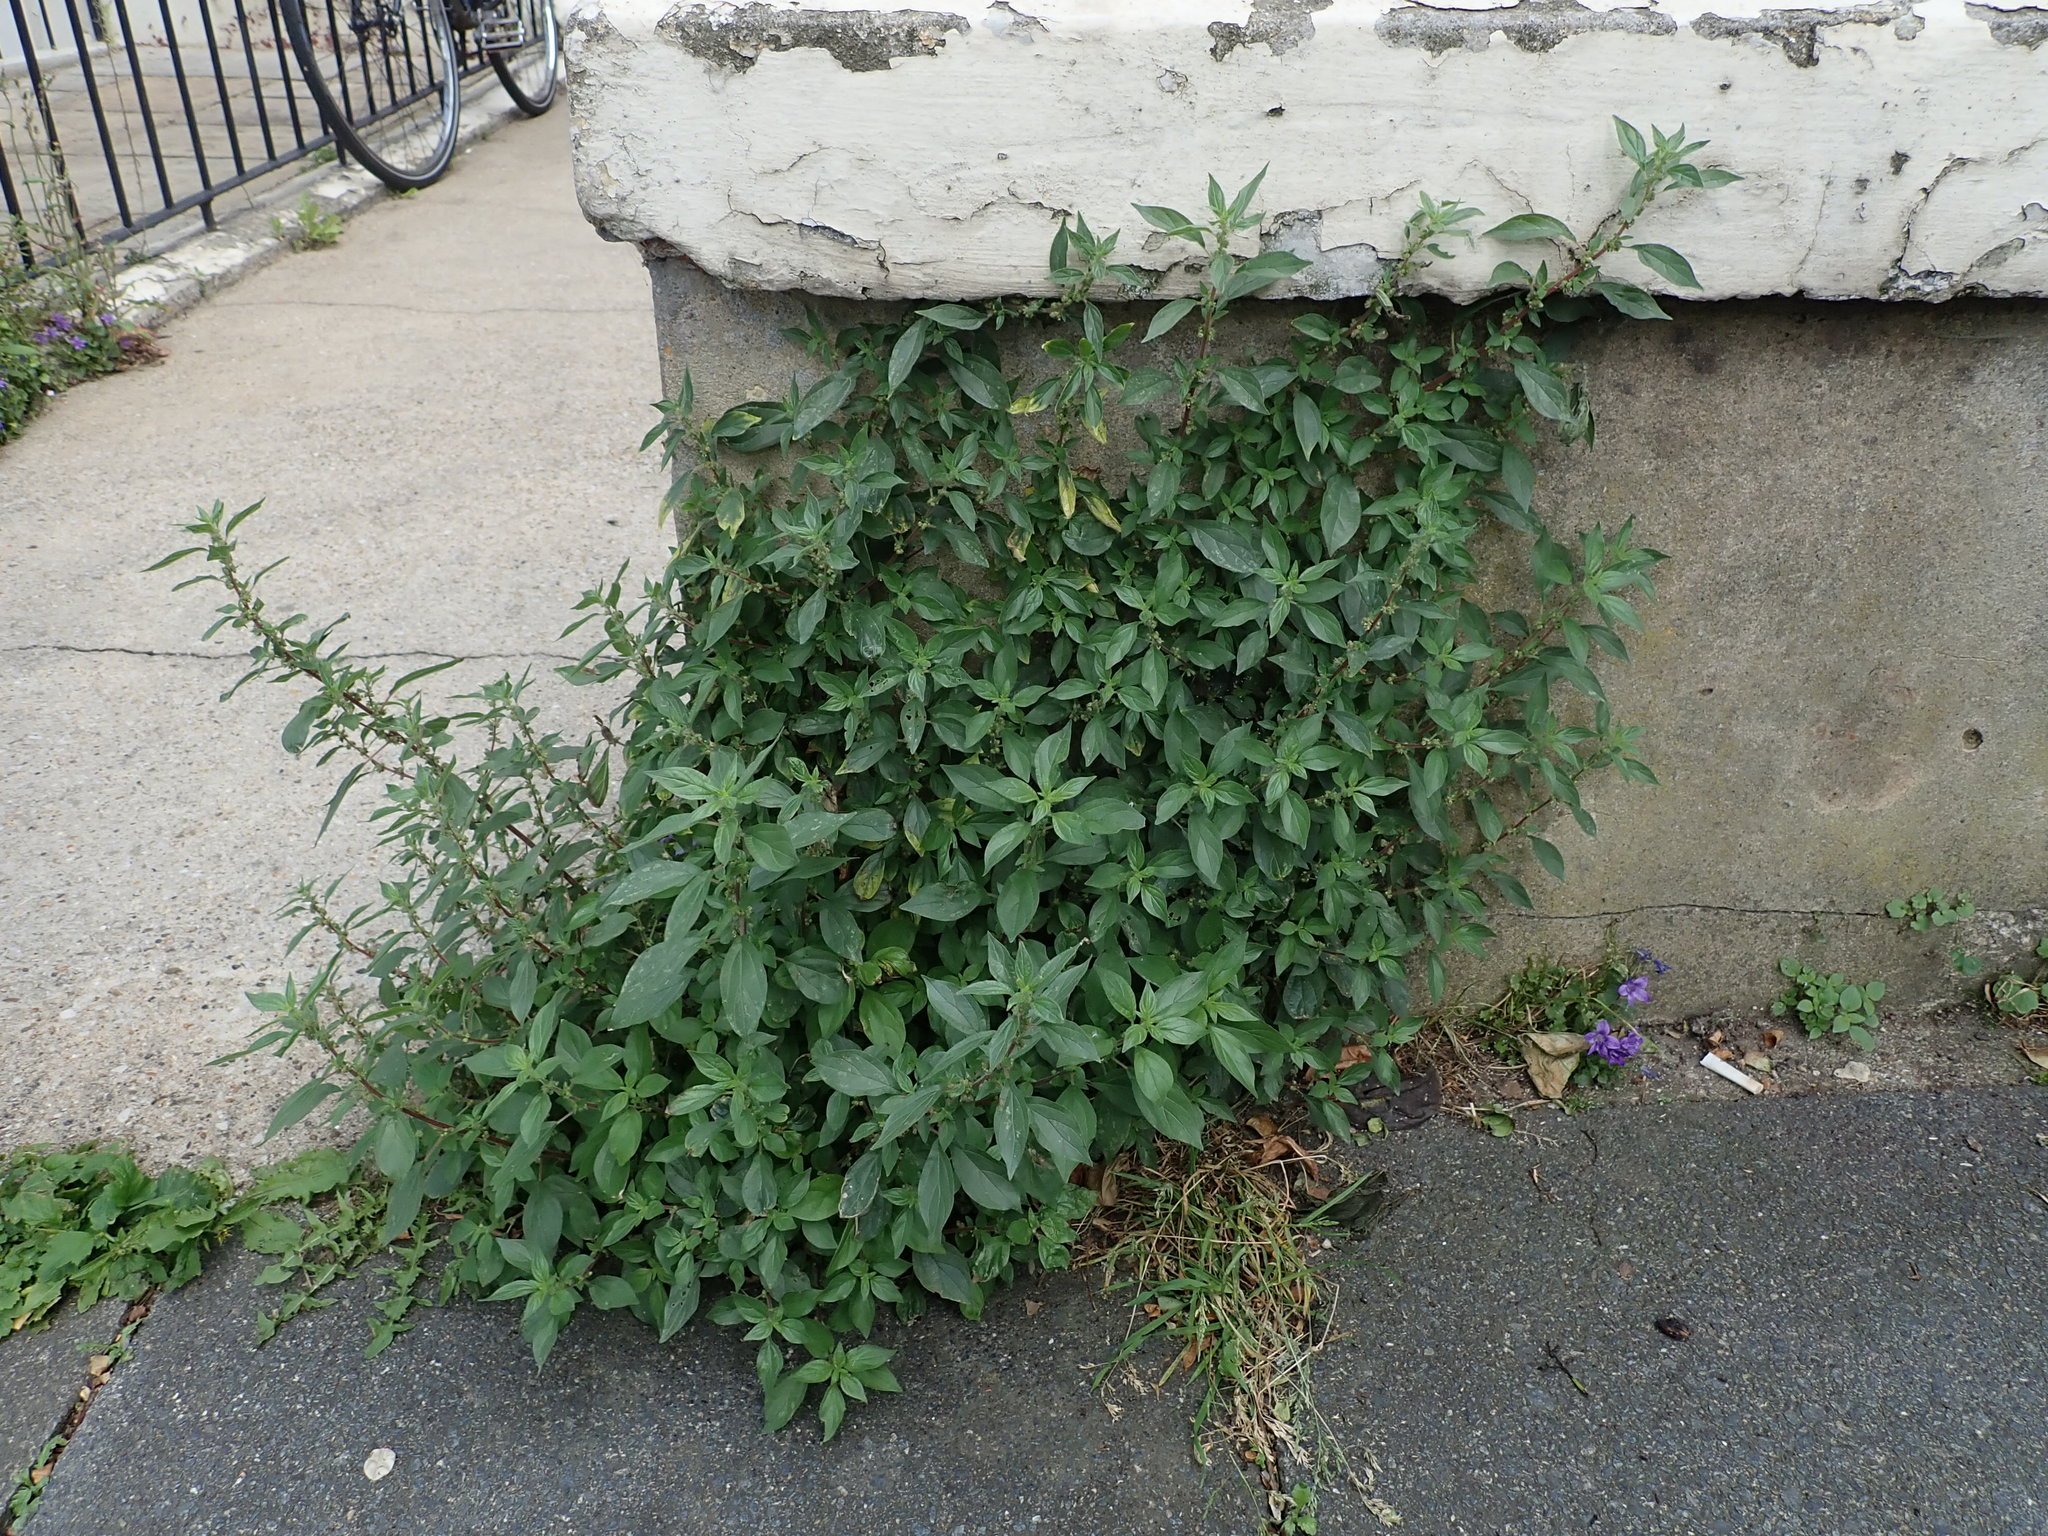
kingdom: Plantae
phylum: Tracheophyta
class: Magnoliopsida
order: Rosales
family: Urticaceae
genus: Parietaria
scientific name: Parietaria judaica
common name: Pellitory-of-the-wall
